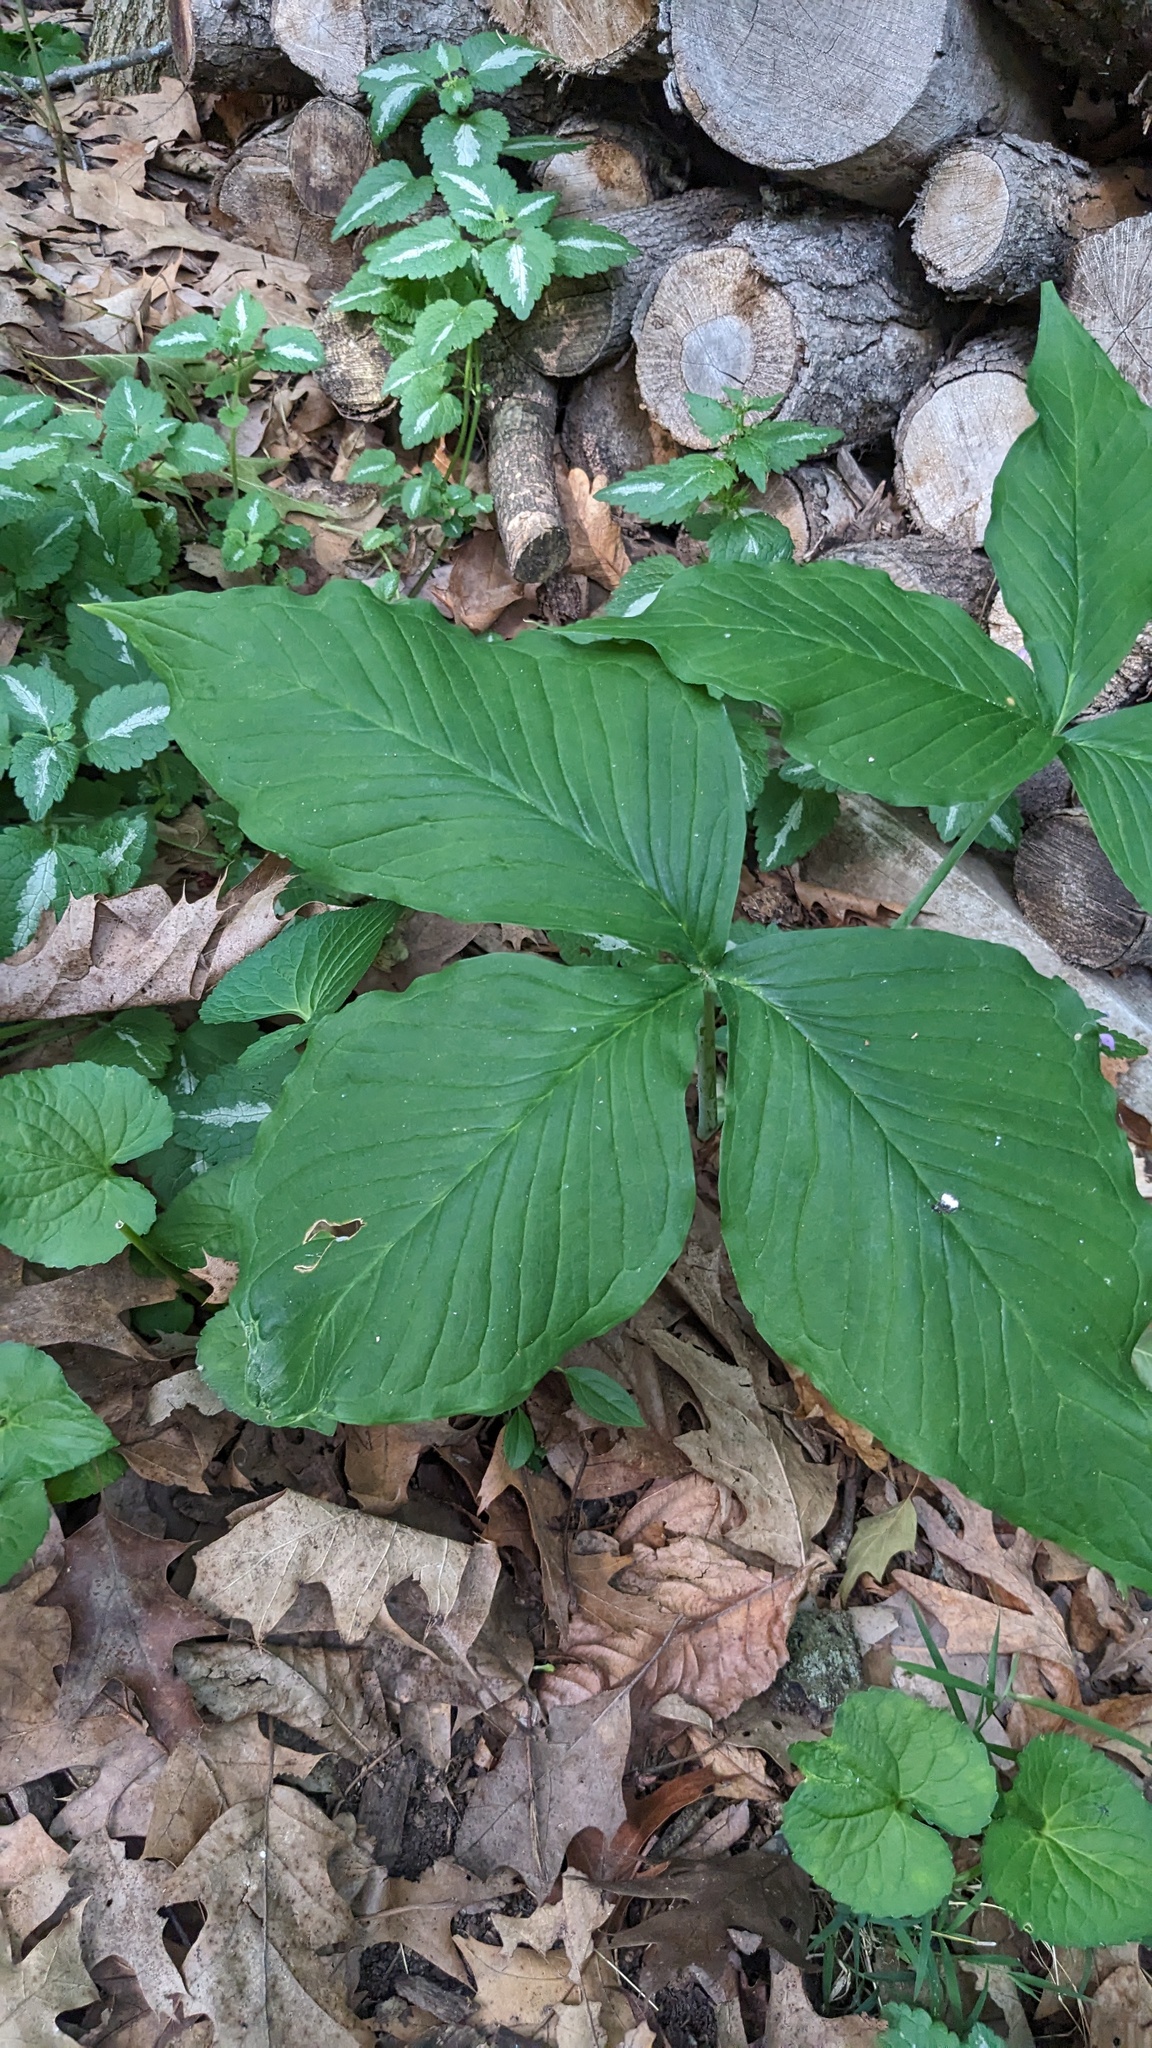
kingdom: Plantae
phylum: Tracheophyta
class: Liliopsida
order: Alismatales
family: Araceae
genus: Arisaema
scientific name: Arisaema triphyllum
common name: Jack-in-the-pulpit
